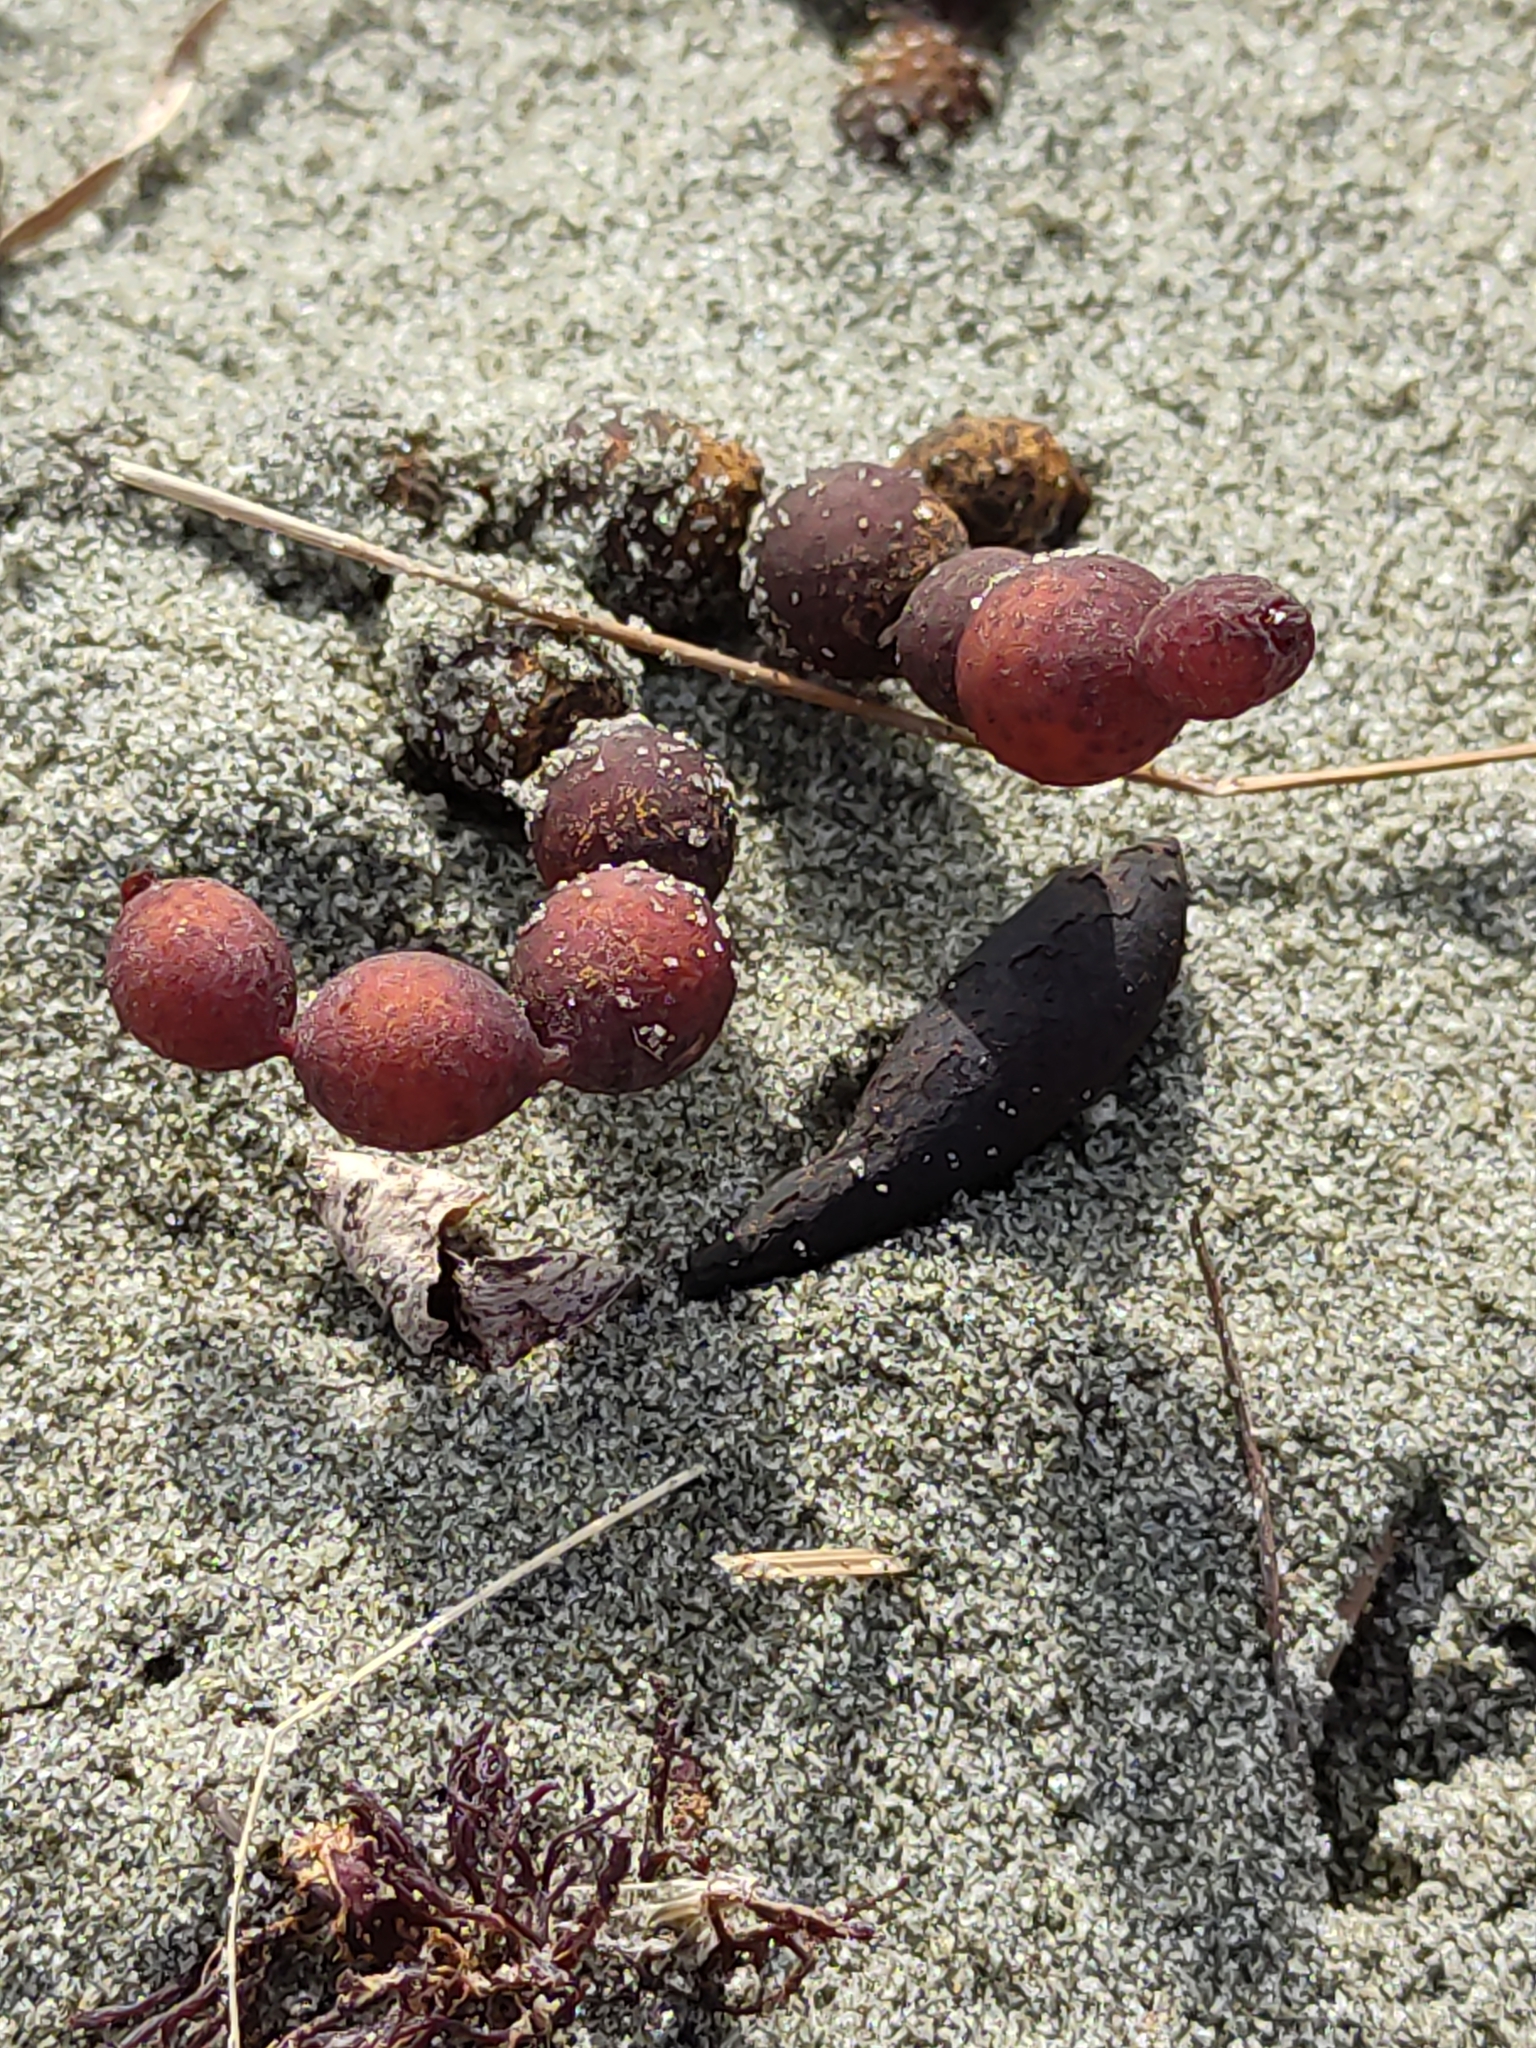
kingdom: Chromista
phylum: Ochrophyta
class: Phaeophyceae
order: Fucales
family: Hormosiraceae
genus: Hormosira
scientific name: Hormosira banksii
